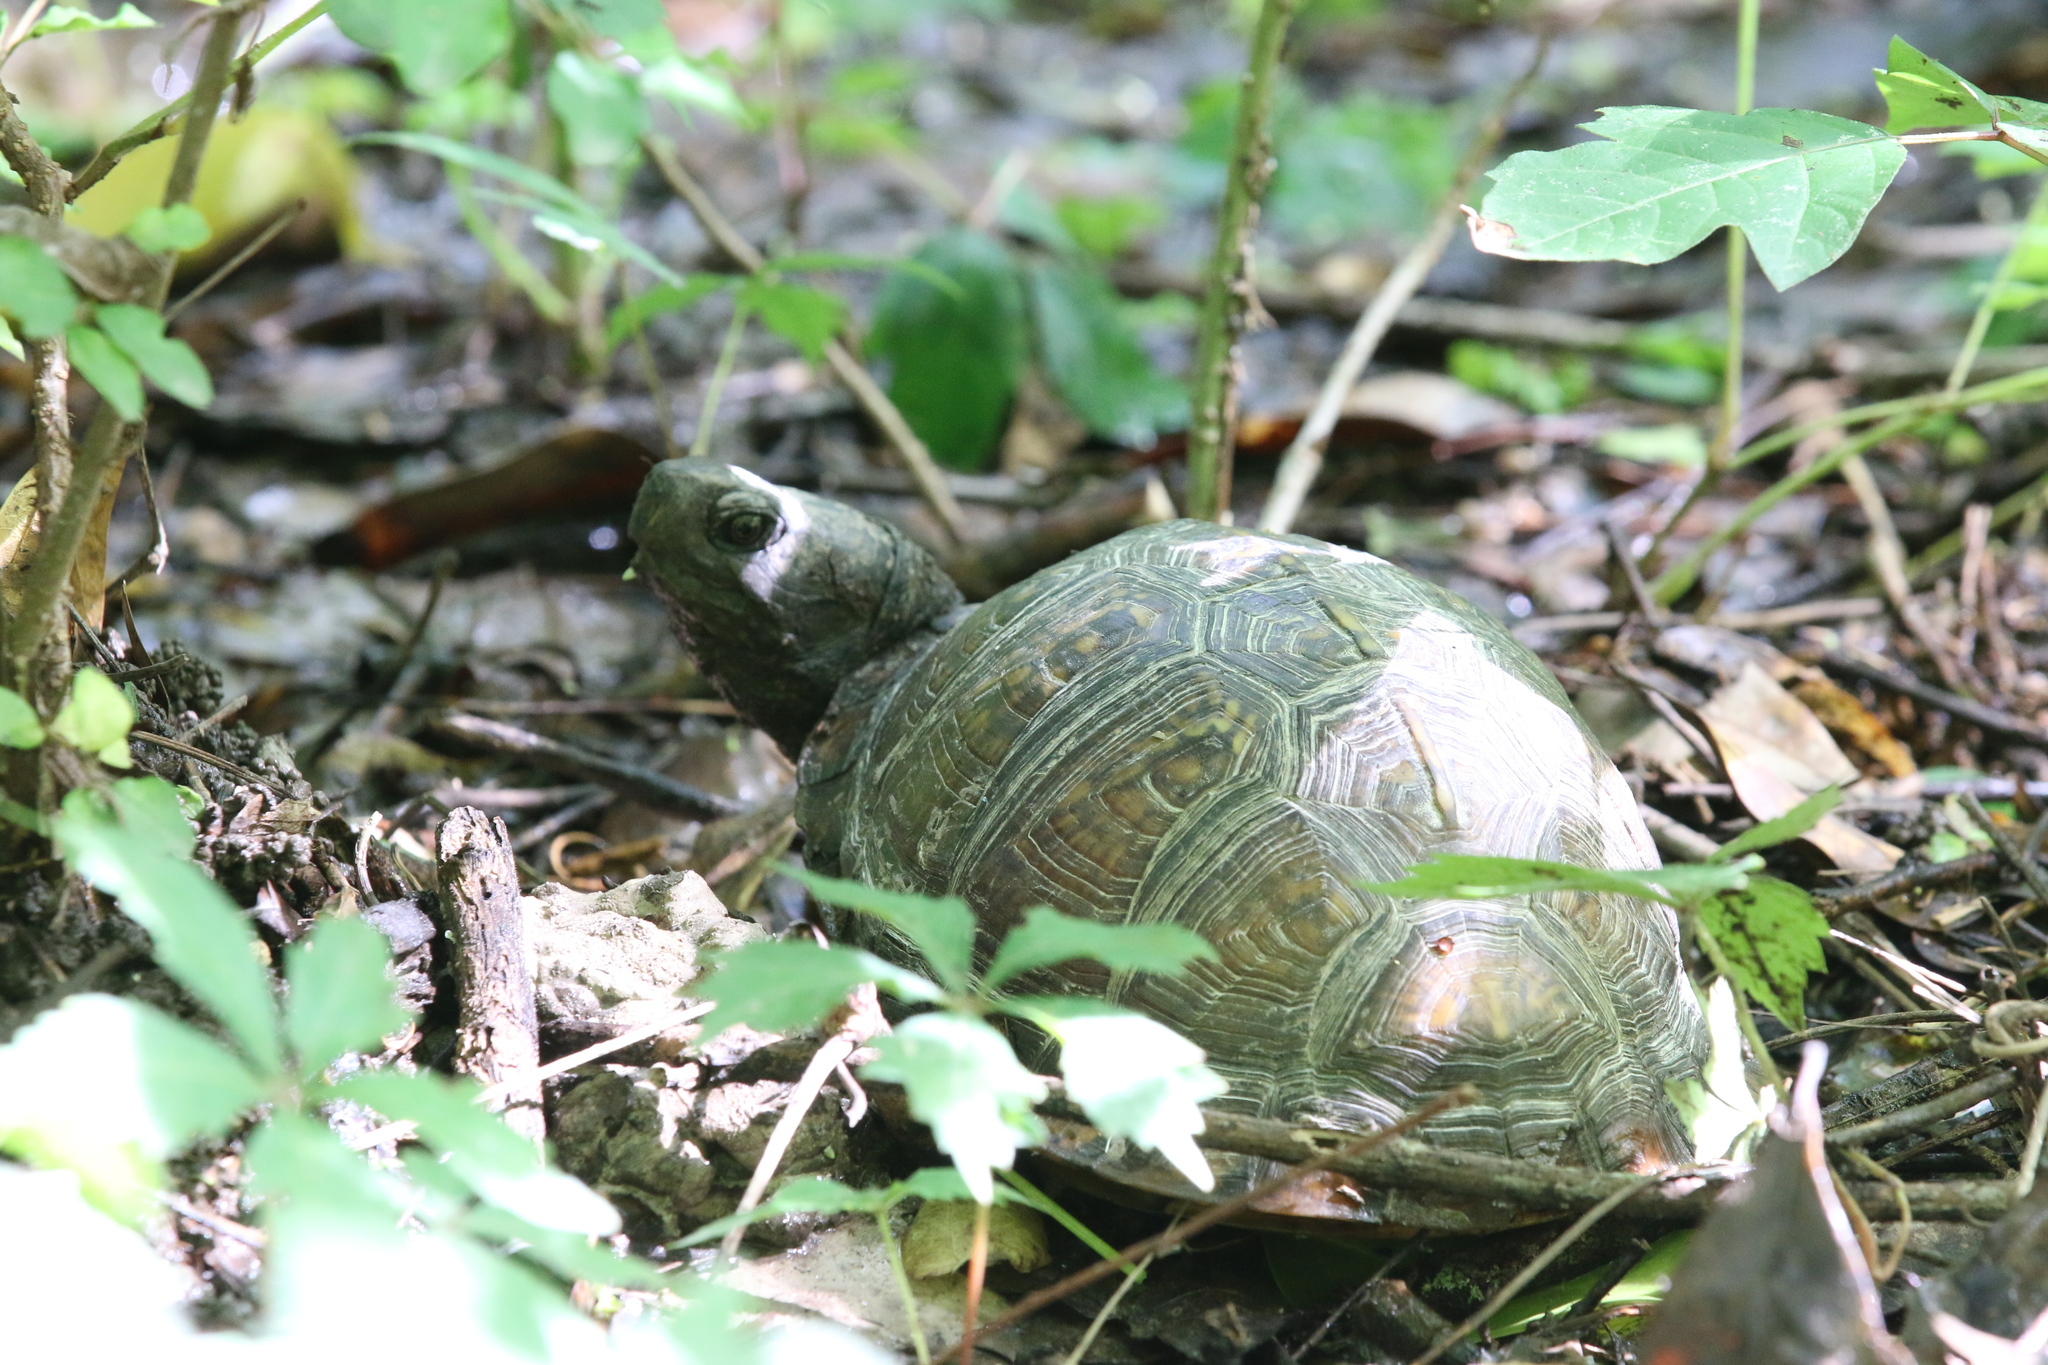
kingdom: Animalia
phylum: Chordata
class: Testudines
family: Emydidae
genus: Terrapene
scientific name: Terrapene carolina
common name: Common box turtle
